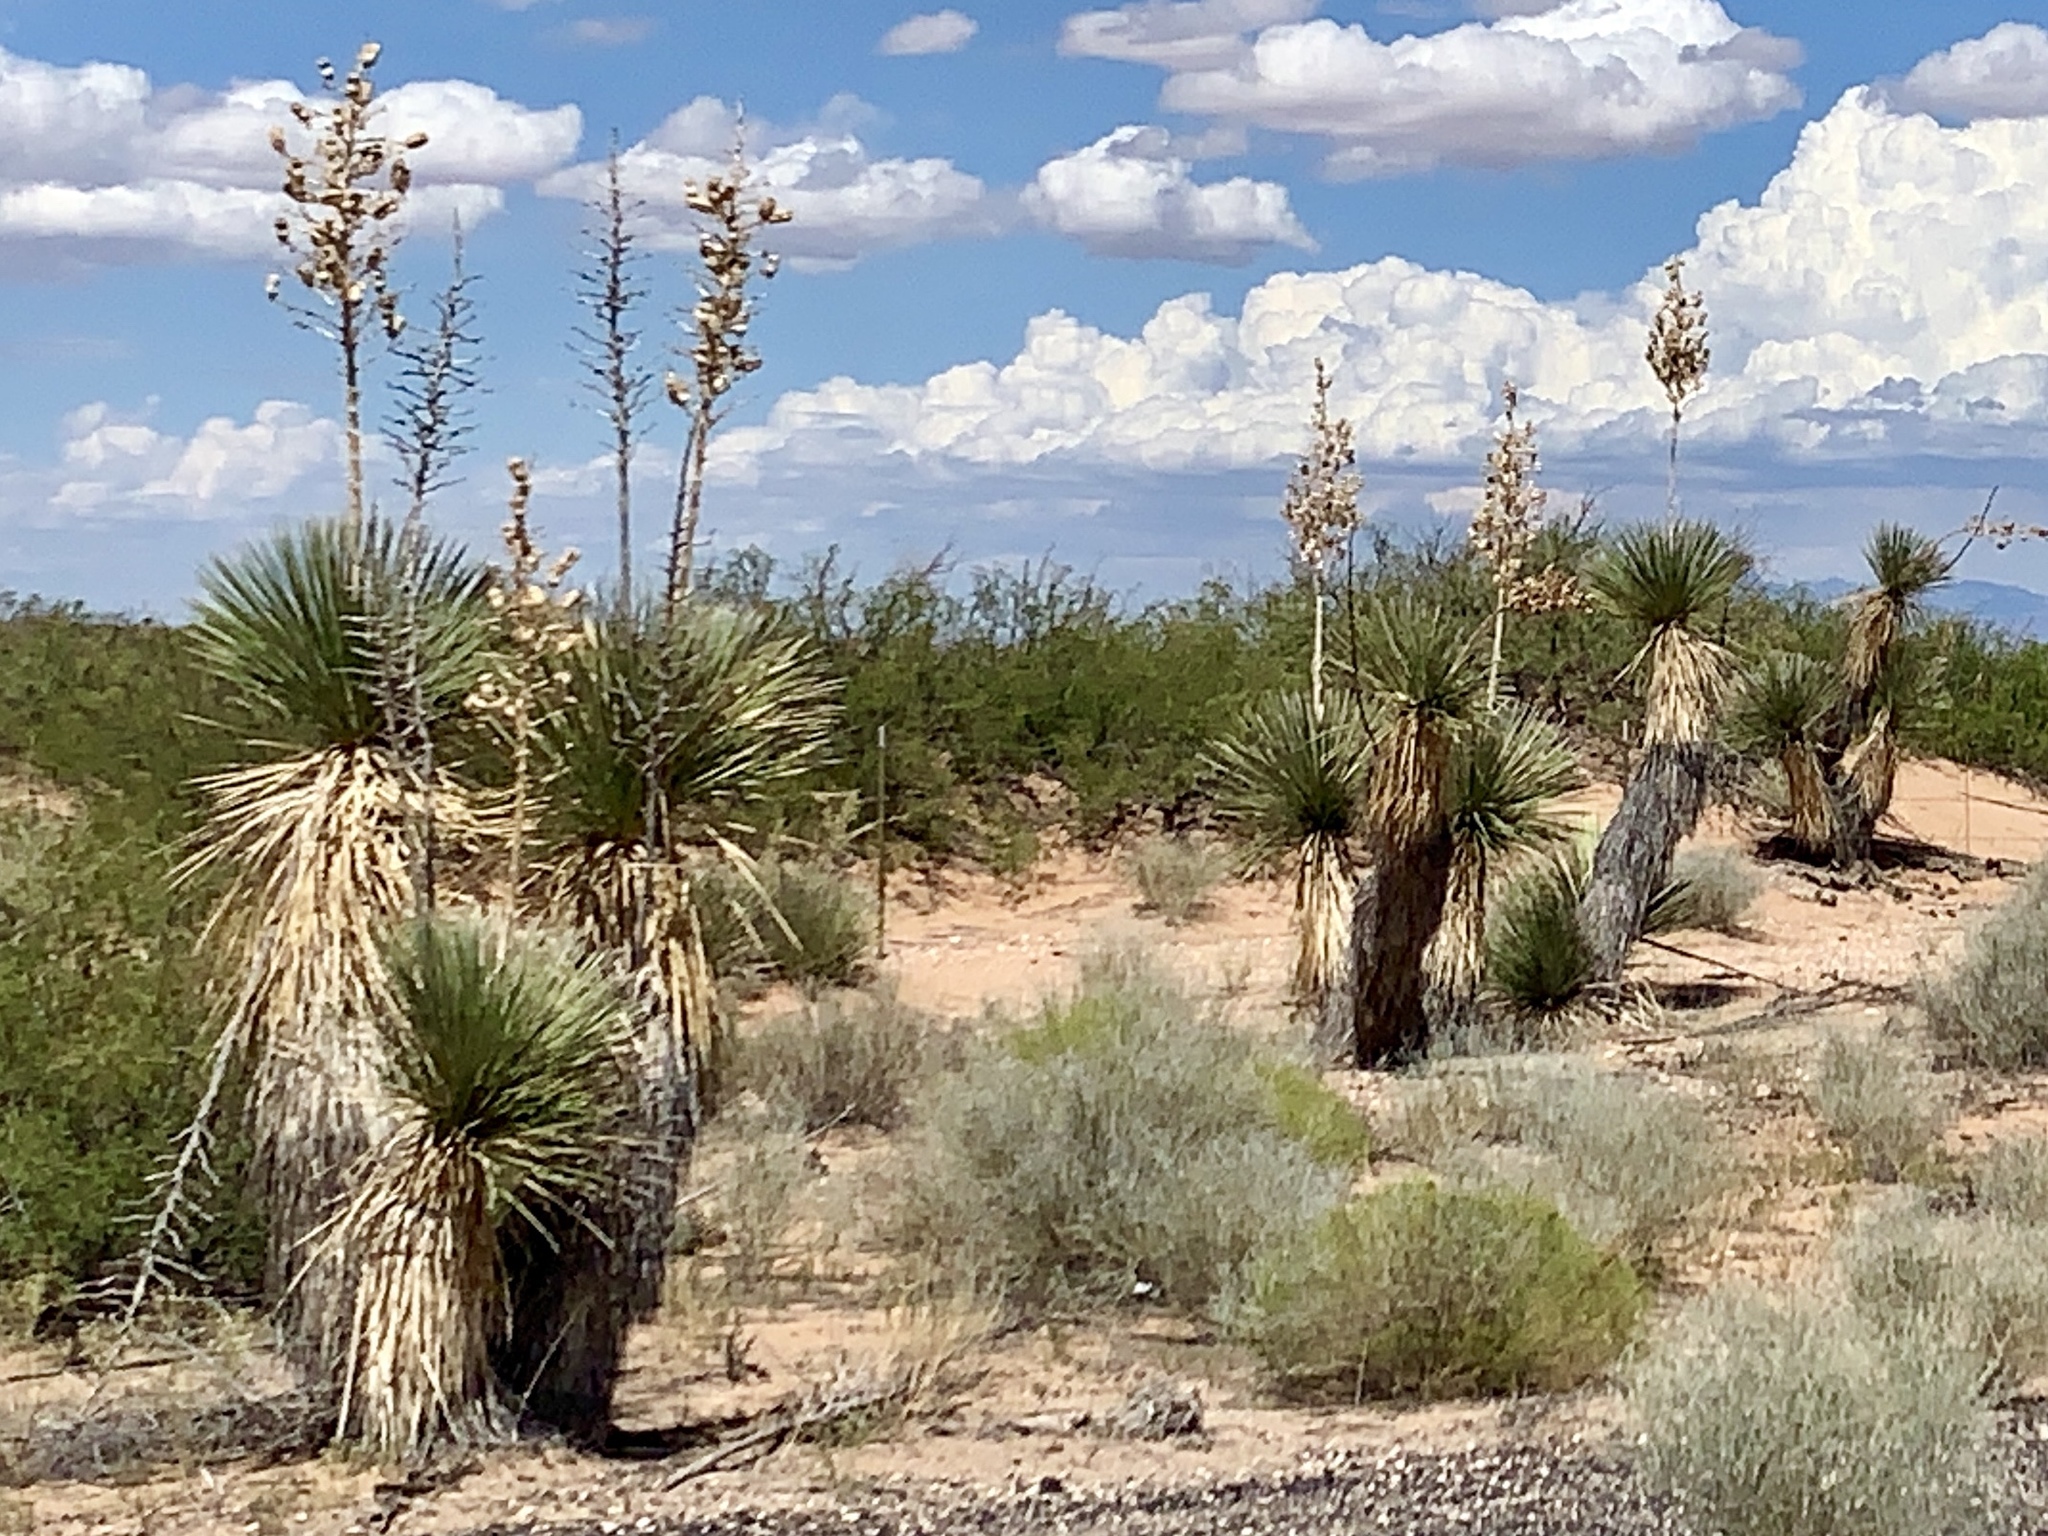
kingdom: Plantae
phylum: Tracheophyta
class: Liliopsida
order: Asparagales
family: Asparagaceae
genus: Yucca
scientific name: Yucca elata
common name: Palmella
